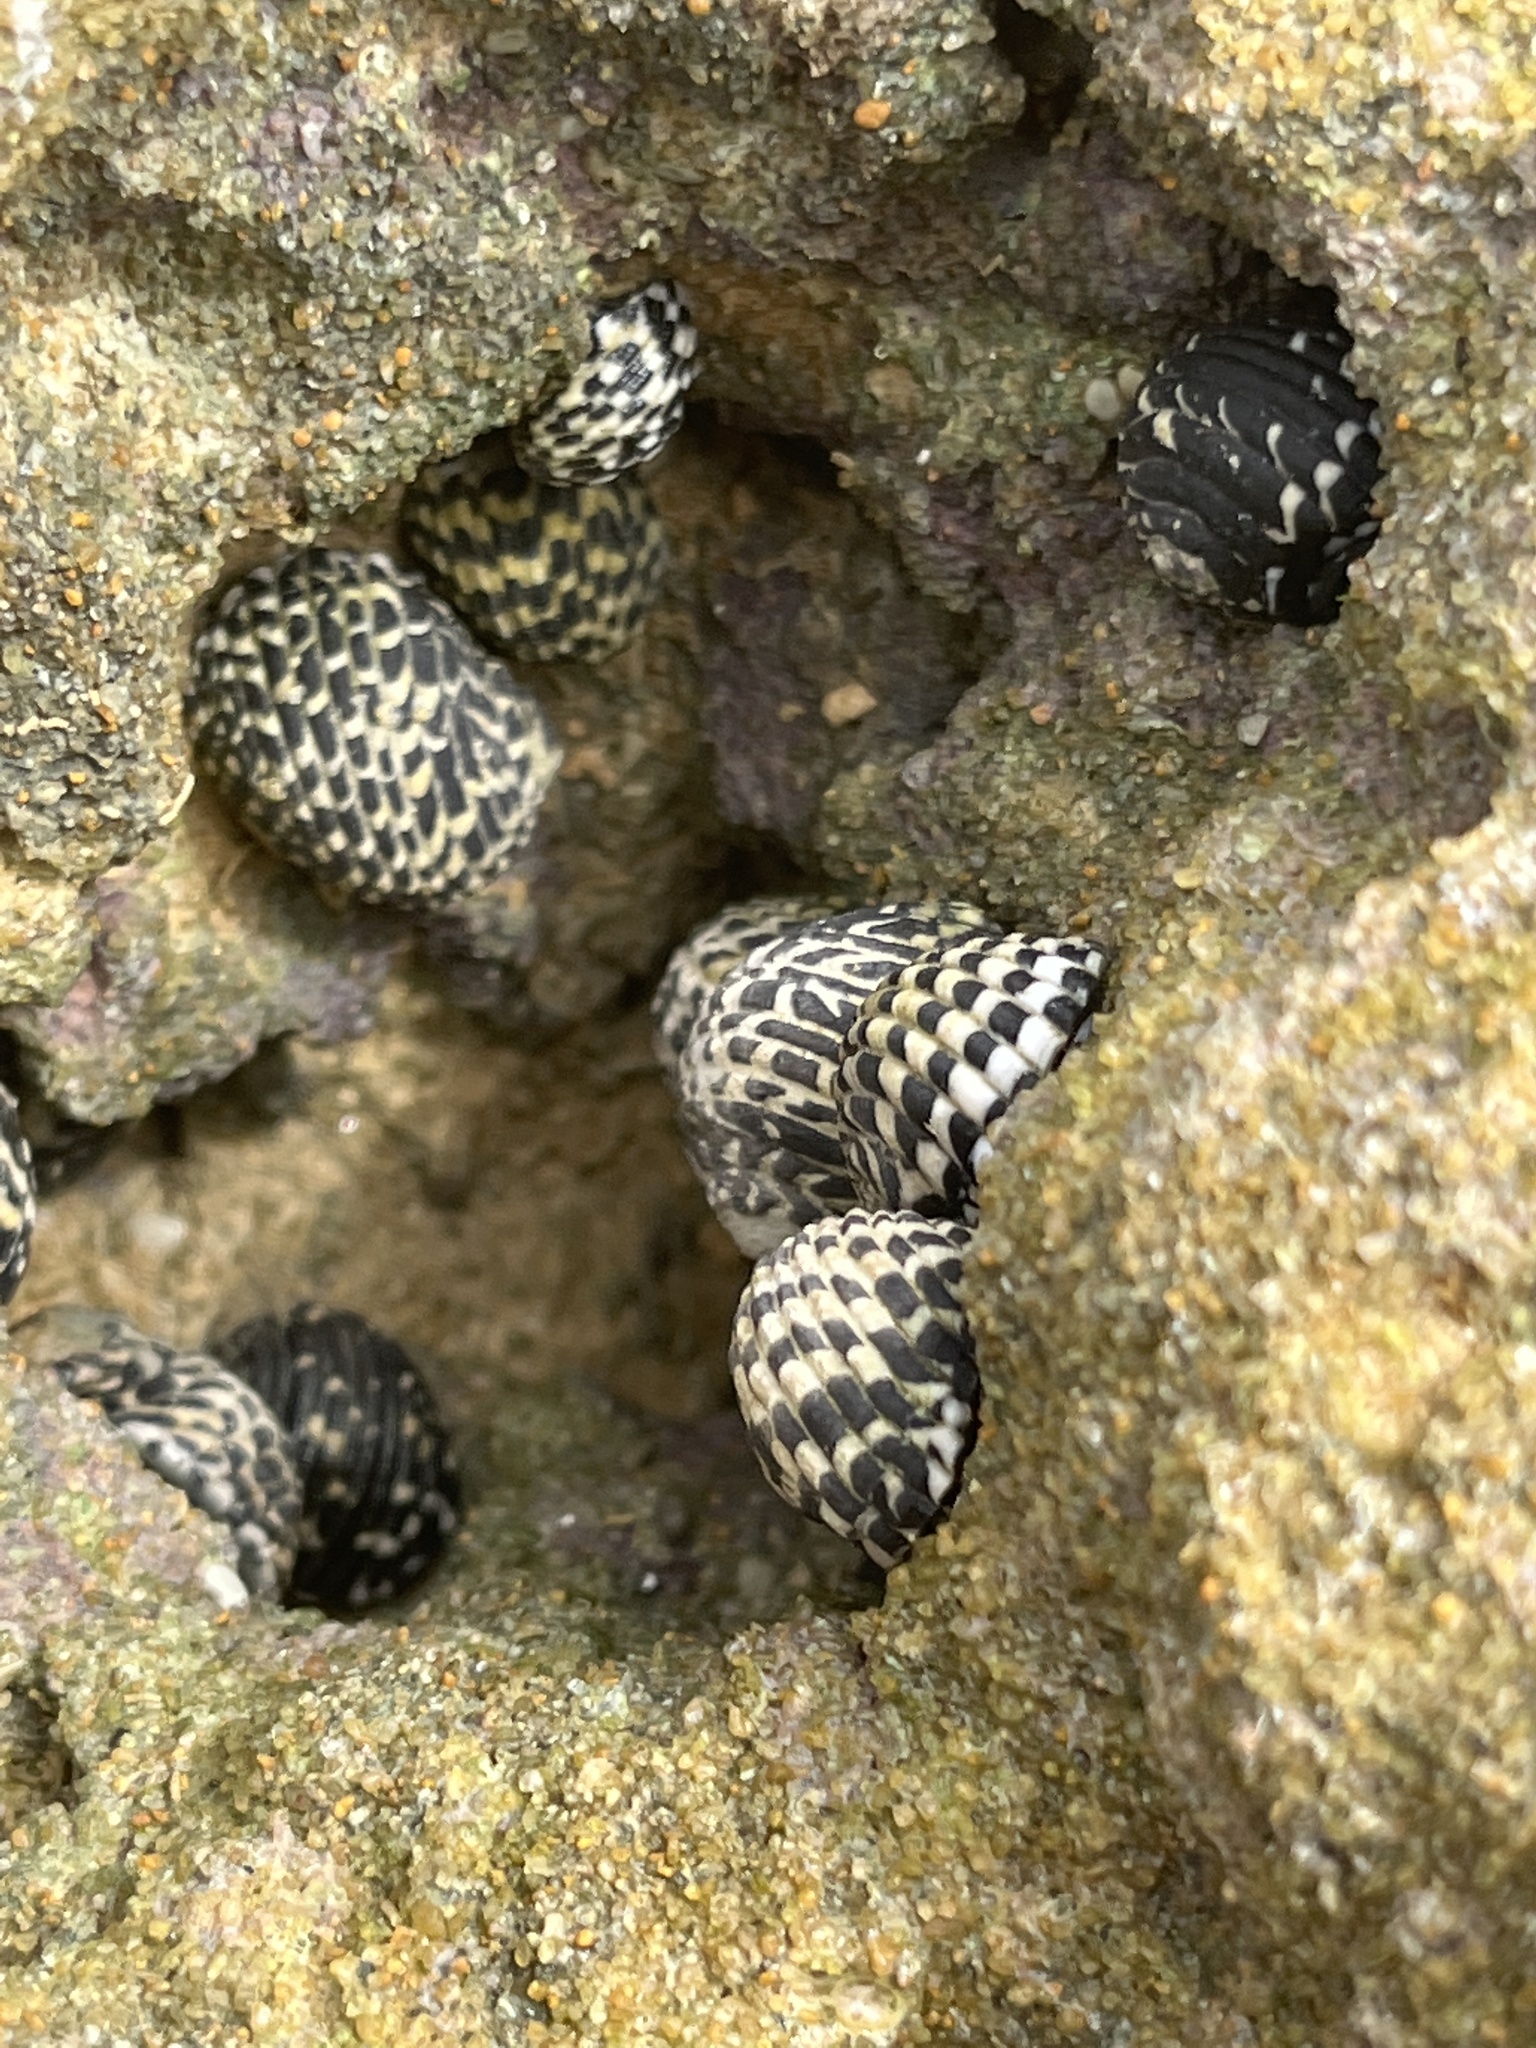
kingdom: Animalia
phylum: Mollusca
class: Gastropoda
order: Cycloneritida
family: Neritidae
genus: Nerita
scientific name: Nerita tessellata
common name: Checkered nerite
